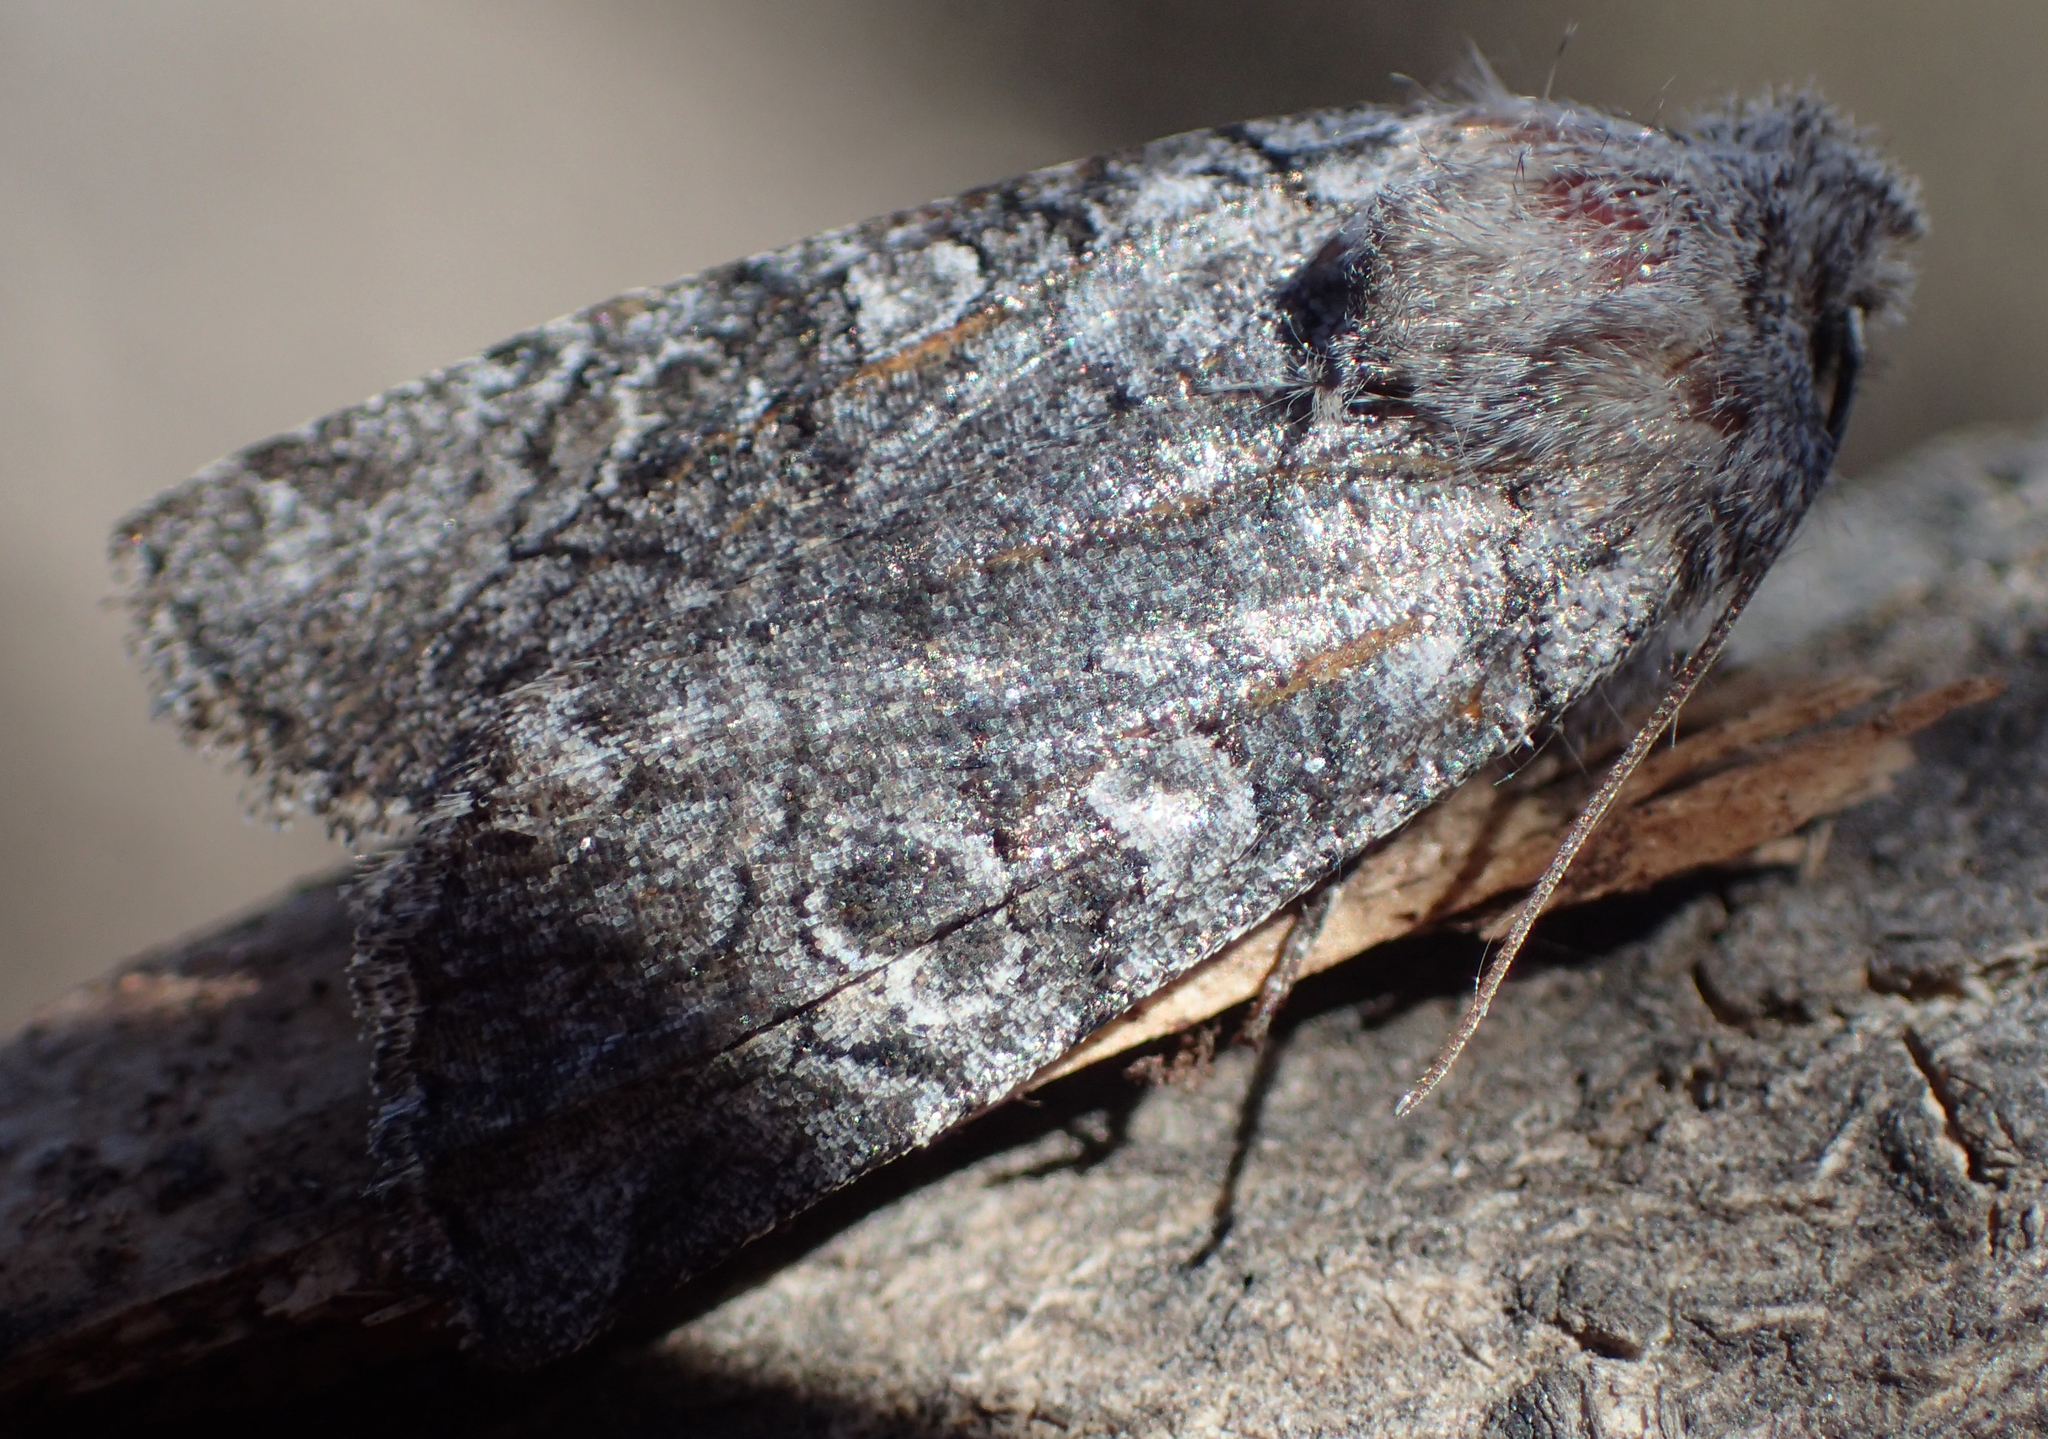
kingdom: Animalia
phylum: Arthropoda
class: Insecta
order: Lepidoptera
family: Noctuidae
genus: Litholomia
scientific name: Litholomia napaea
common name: False pinion moth
